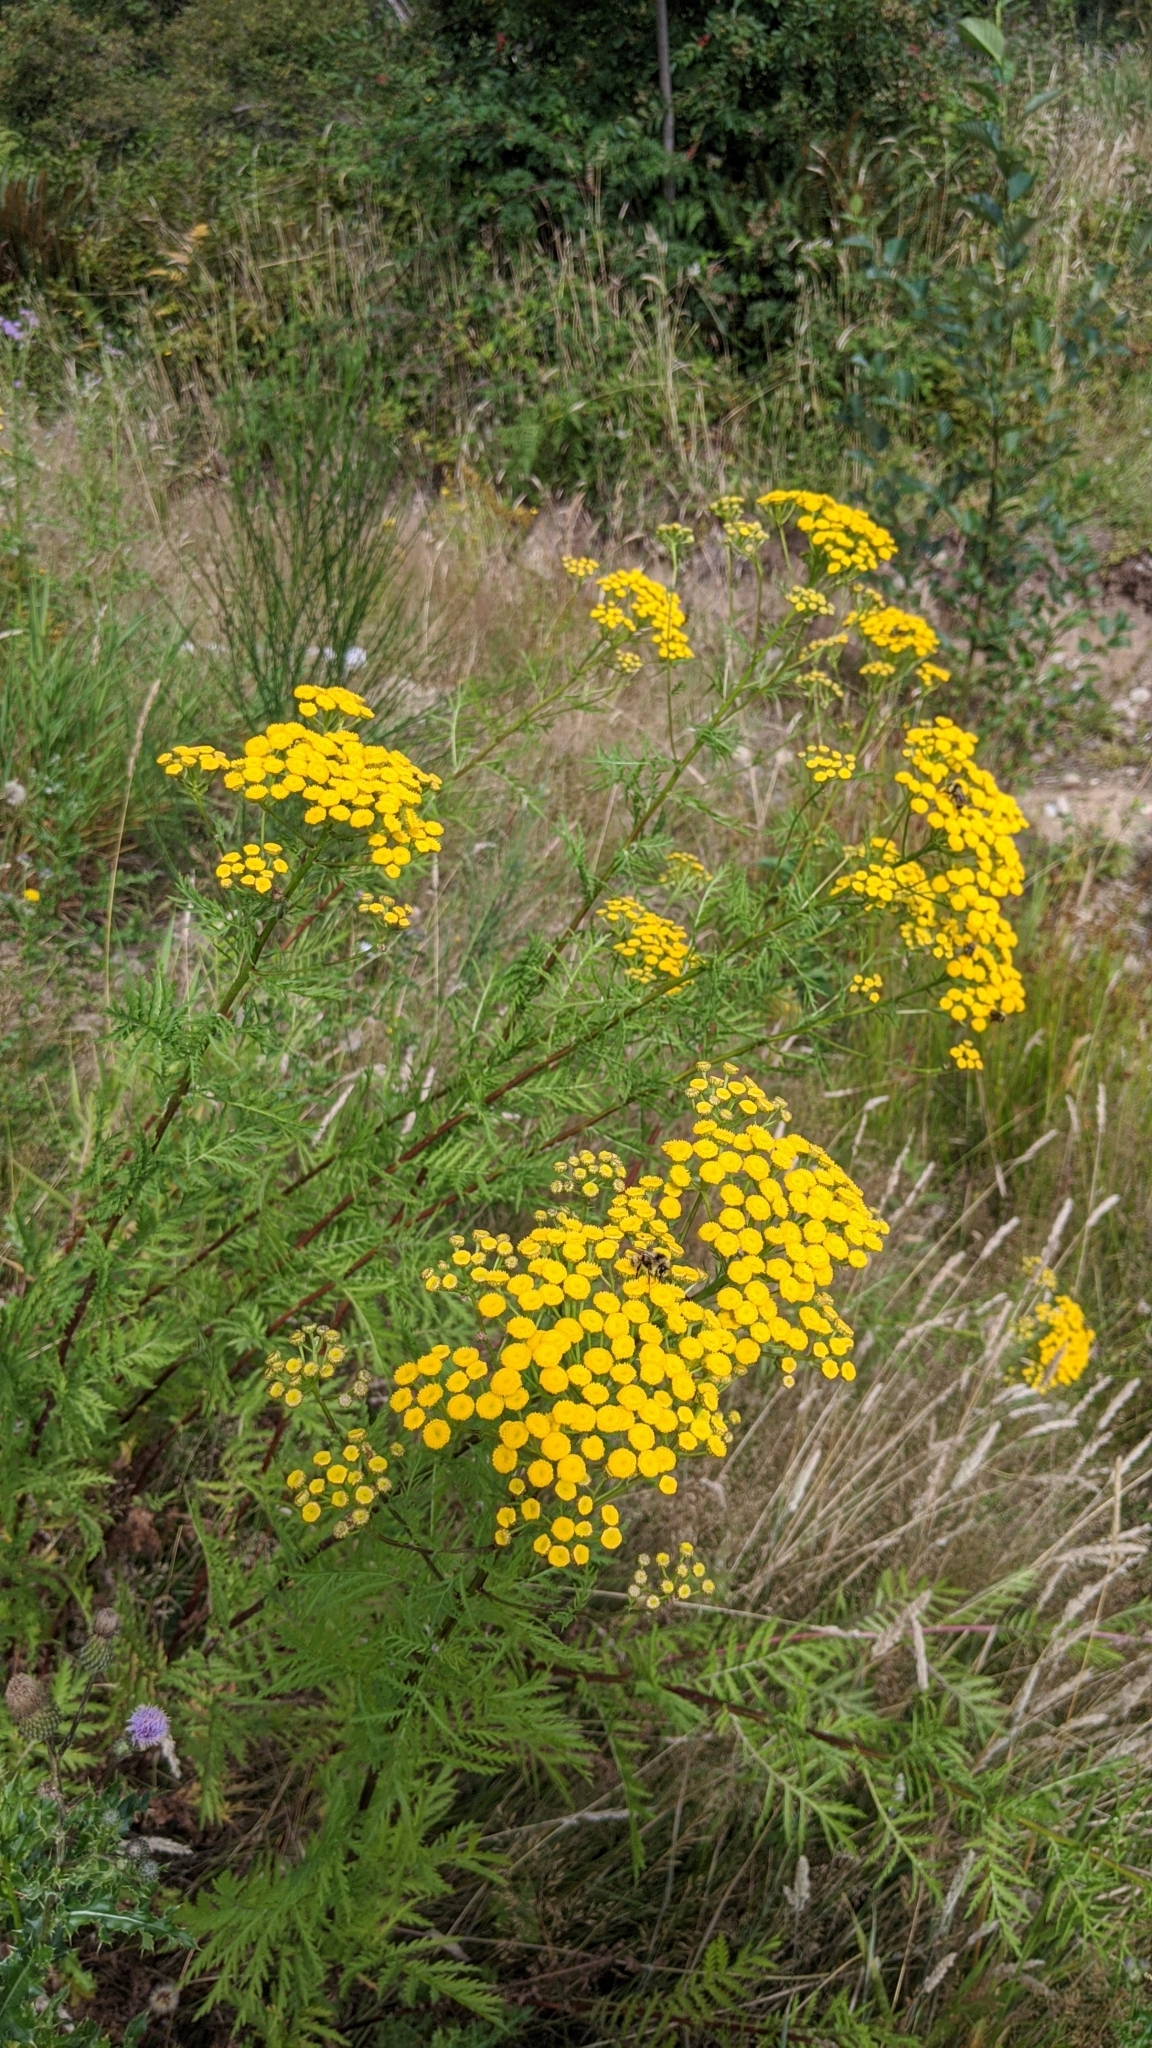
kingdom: Plantae
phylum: Tracheophyta
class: Magnoliopsida
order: Asterales
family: Asteraceae
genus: Tanacetum
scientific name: Tanacetum vulgare
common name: Common tansy
